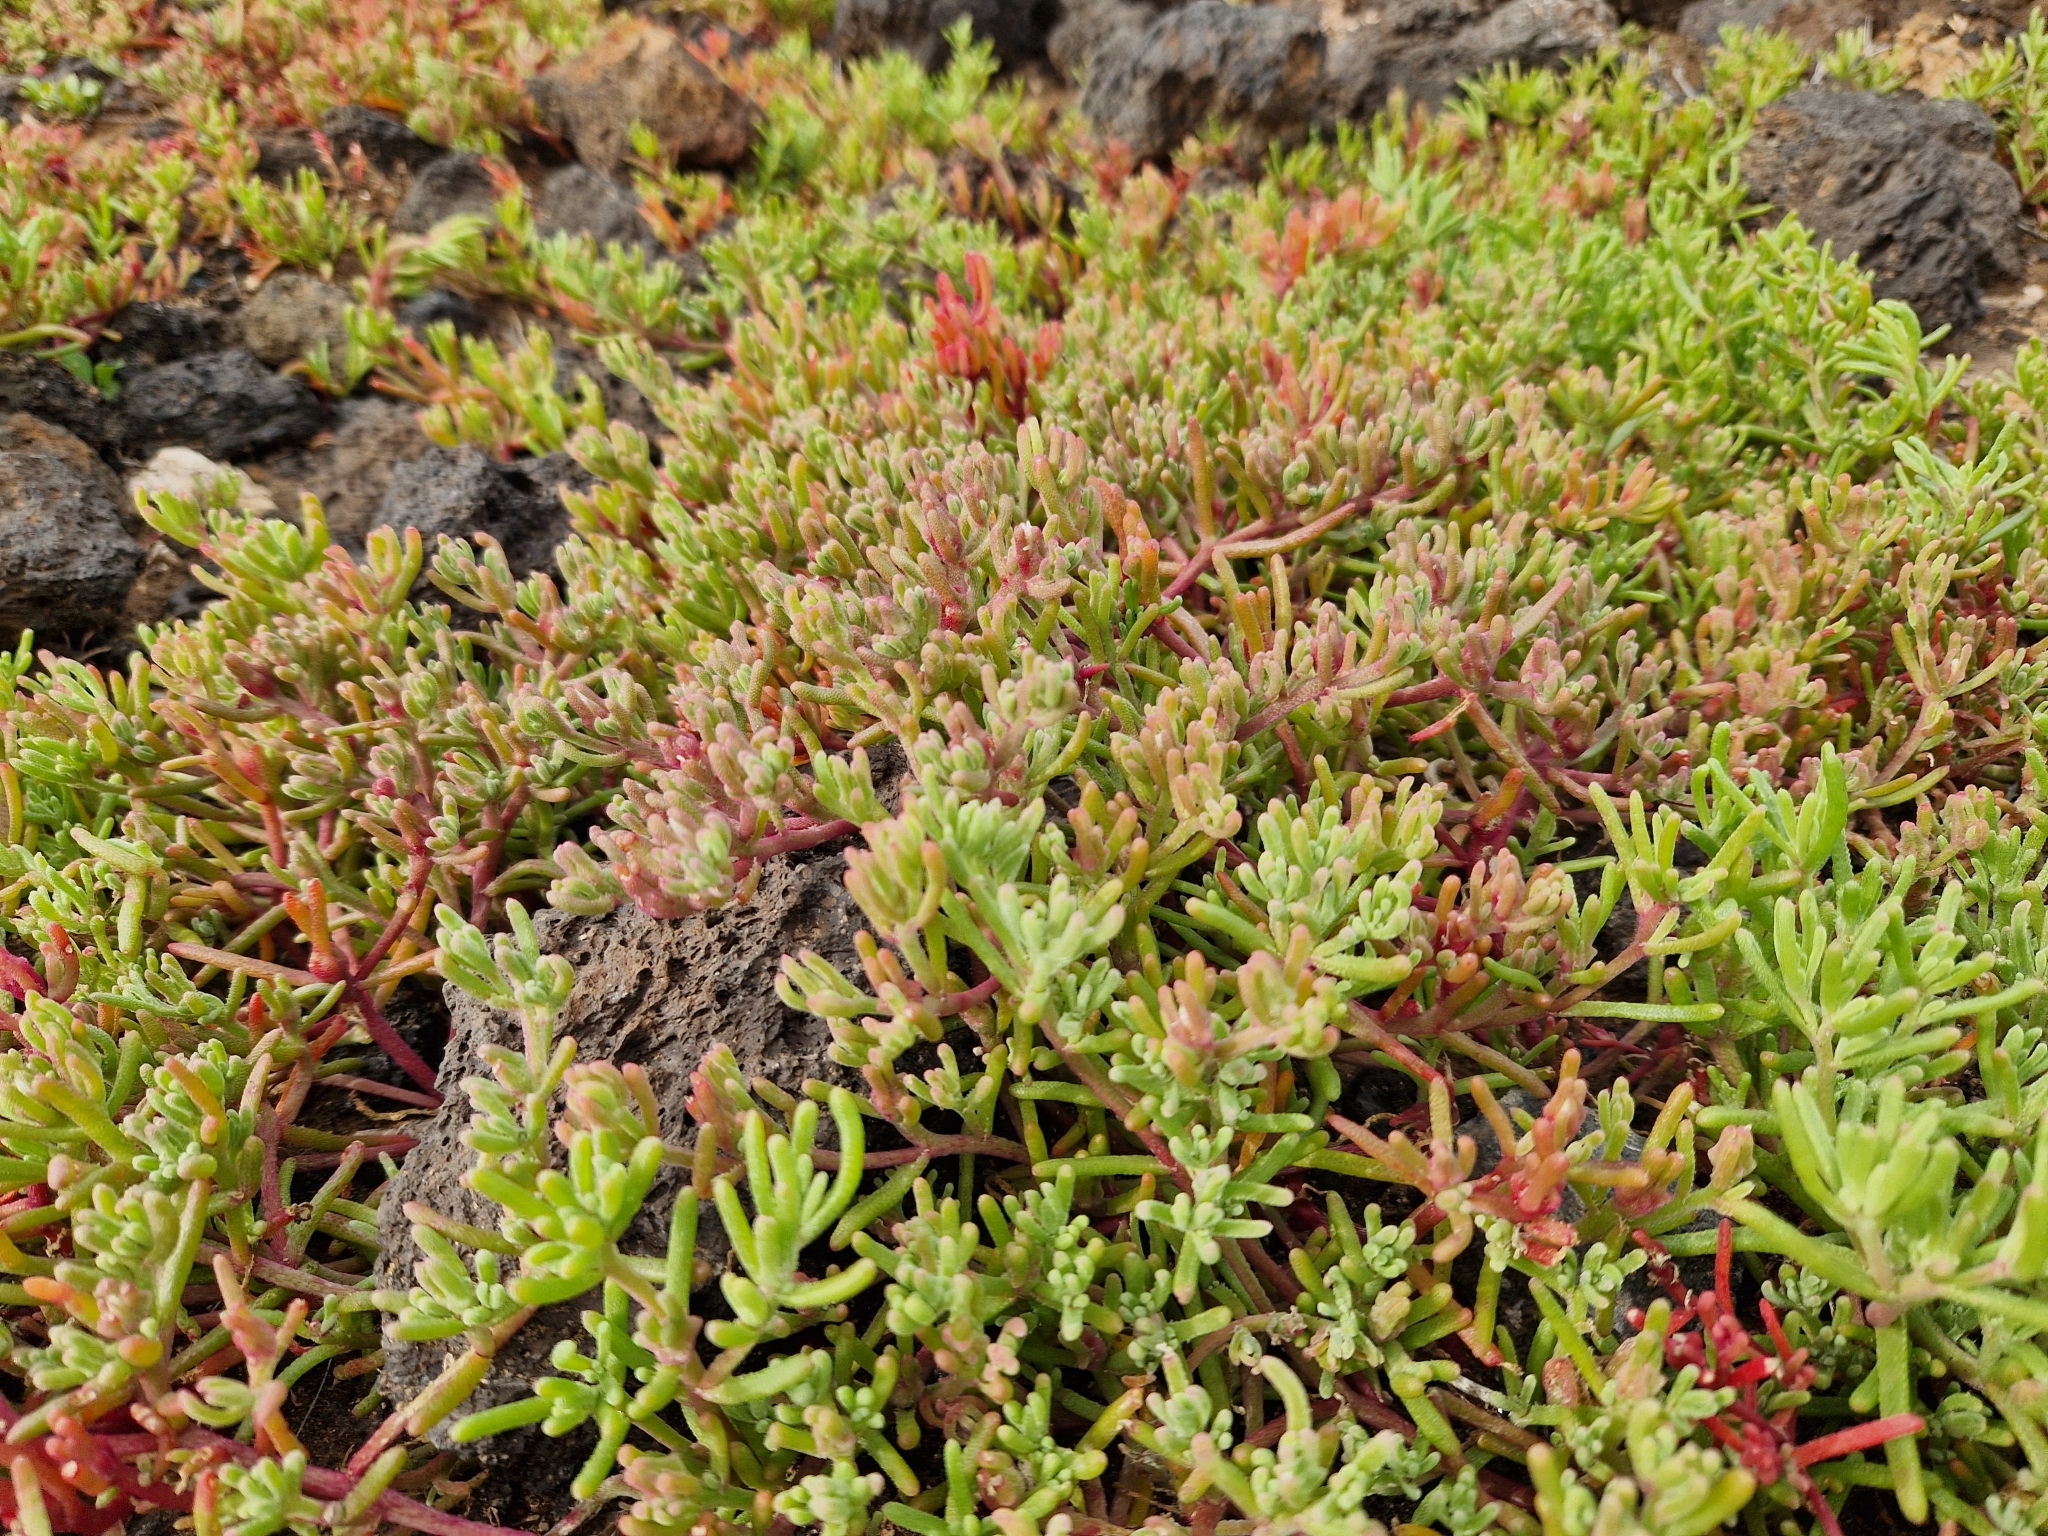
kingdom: Plantae
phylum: Tracheophyta
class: Magnoliopsida
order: Caryophyllales
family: Aizoaceae
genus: Mesembryanthemum
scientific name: Mesembryanthemum nodiflorum
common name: Slenderleaf iceplant
